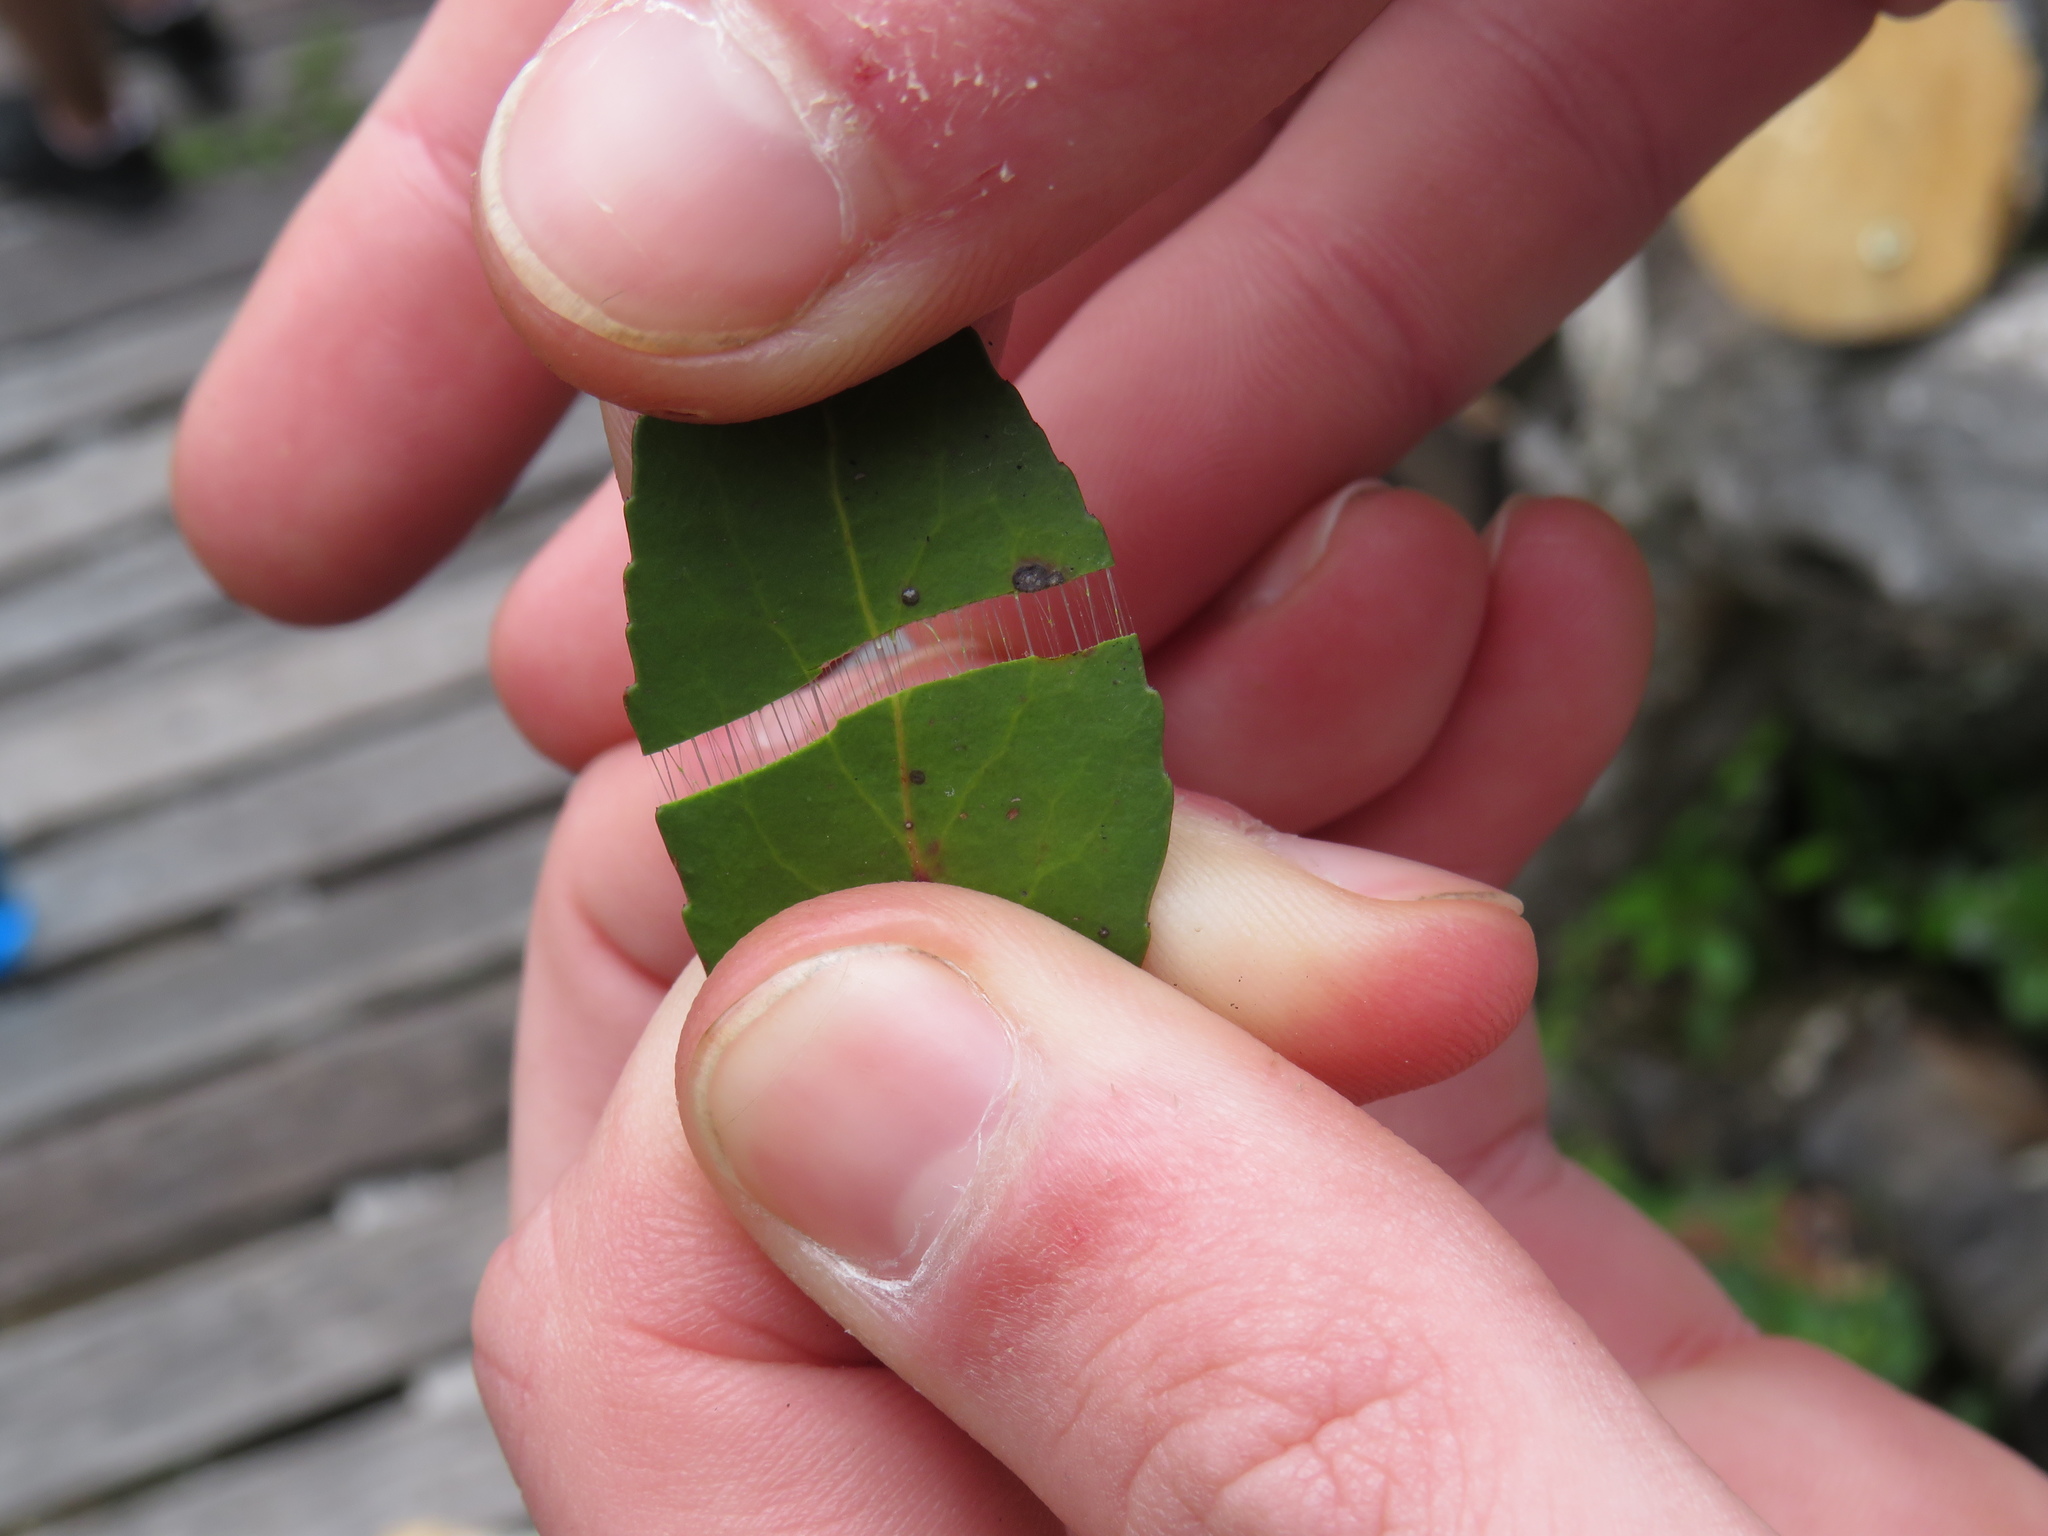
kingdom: Plantae
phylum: Tracheophyta
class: Magnoliopsida
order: Celastrales
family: Celastraceae
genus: Gymnosporia
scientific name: Gymnosporia acuminata
